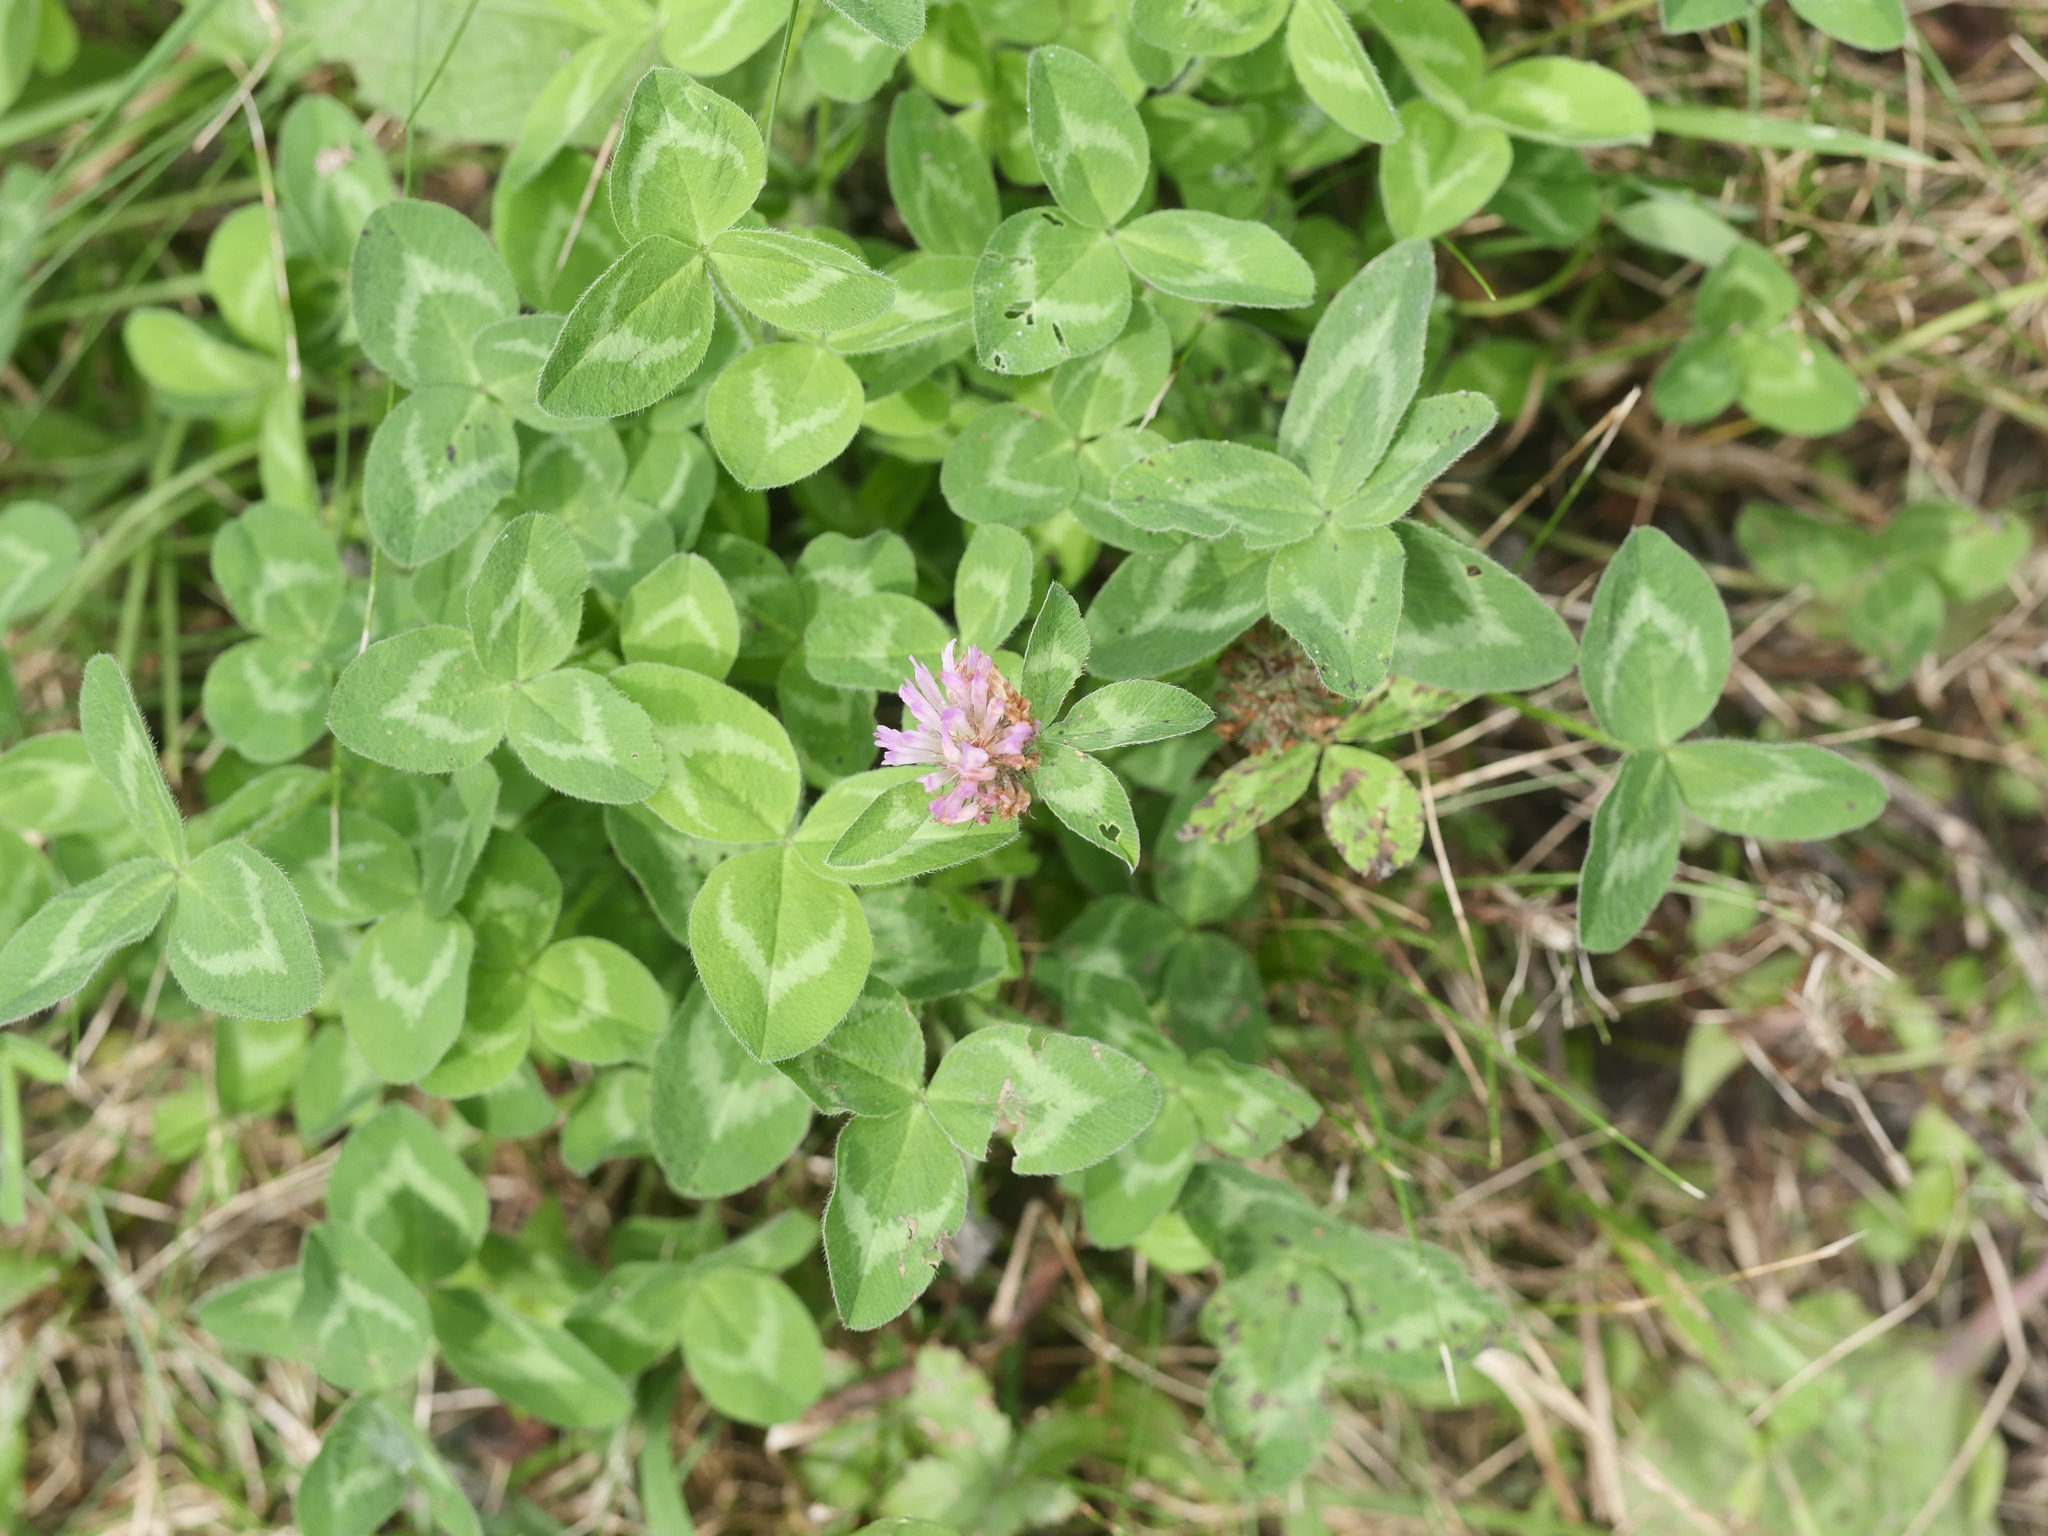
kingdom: Plantae
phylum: Tracheophyta
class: Magnoliopsida
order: Fabales
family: Fabaceae
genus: Trifolium
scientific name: Trifolium pratense
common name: Red clover
